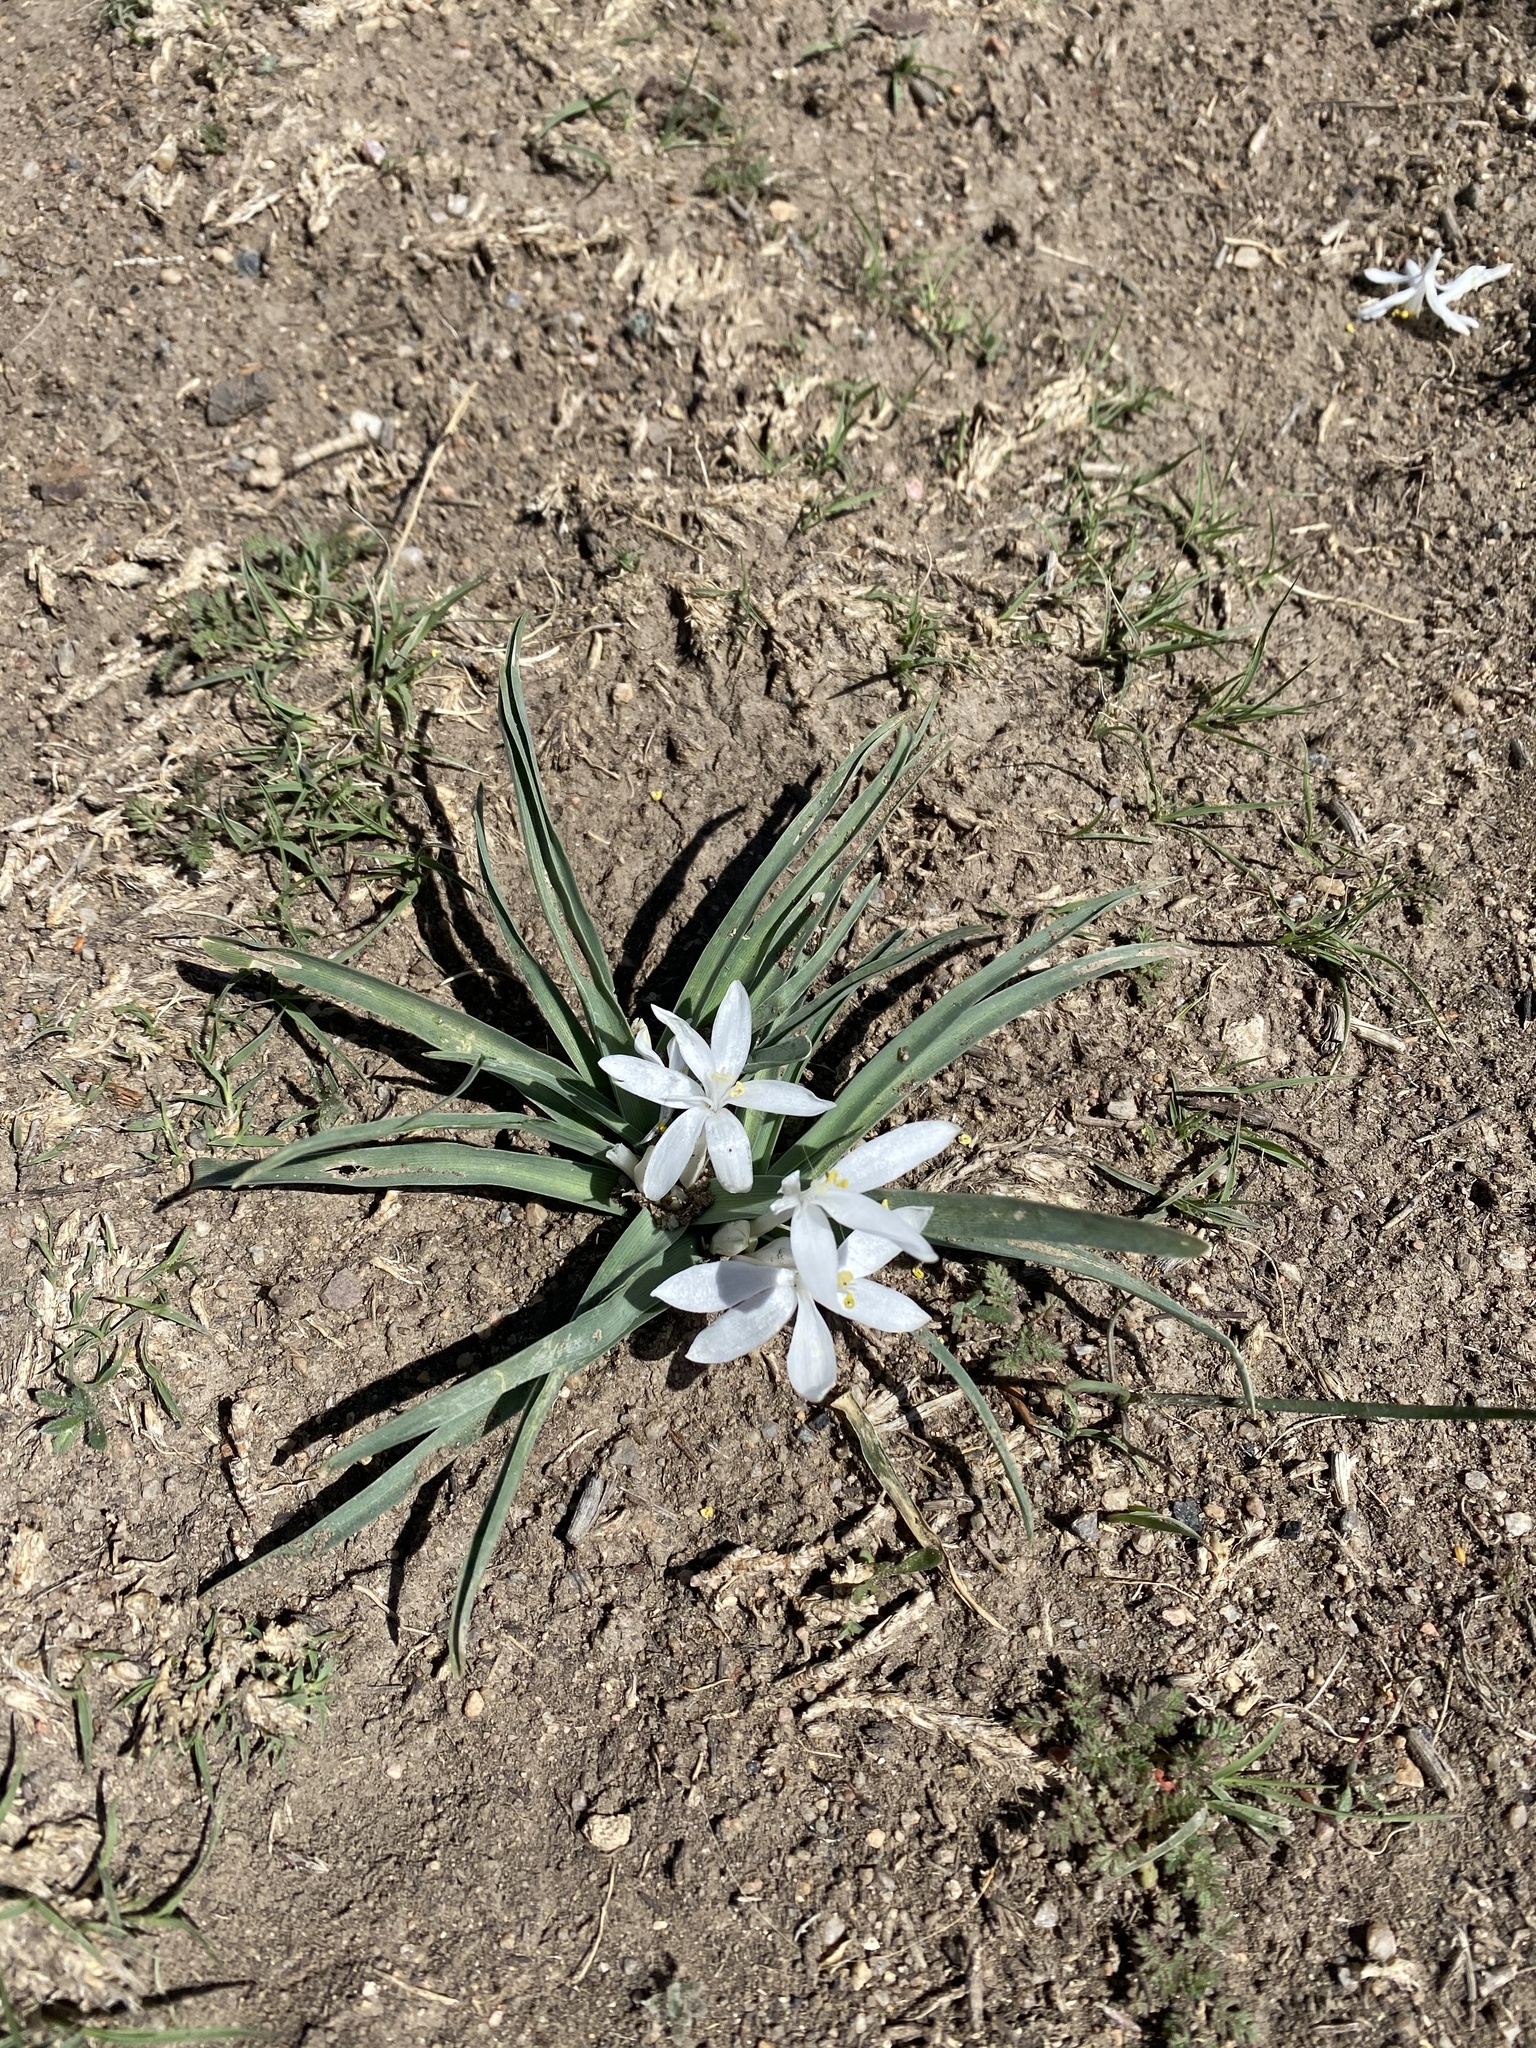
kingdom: Plantae
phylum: Tracheophyta
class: Liliopsida
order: Asparagales
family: Asparagaceae
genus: Leucocrinum
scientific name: Leucocrinum montanum
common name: Mountain-lily
